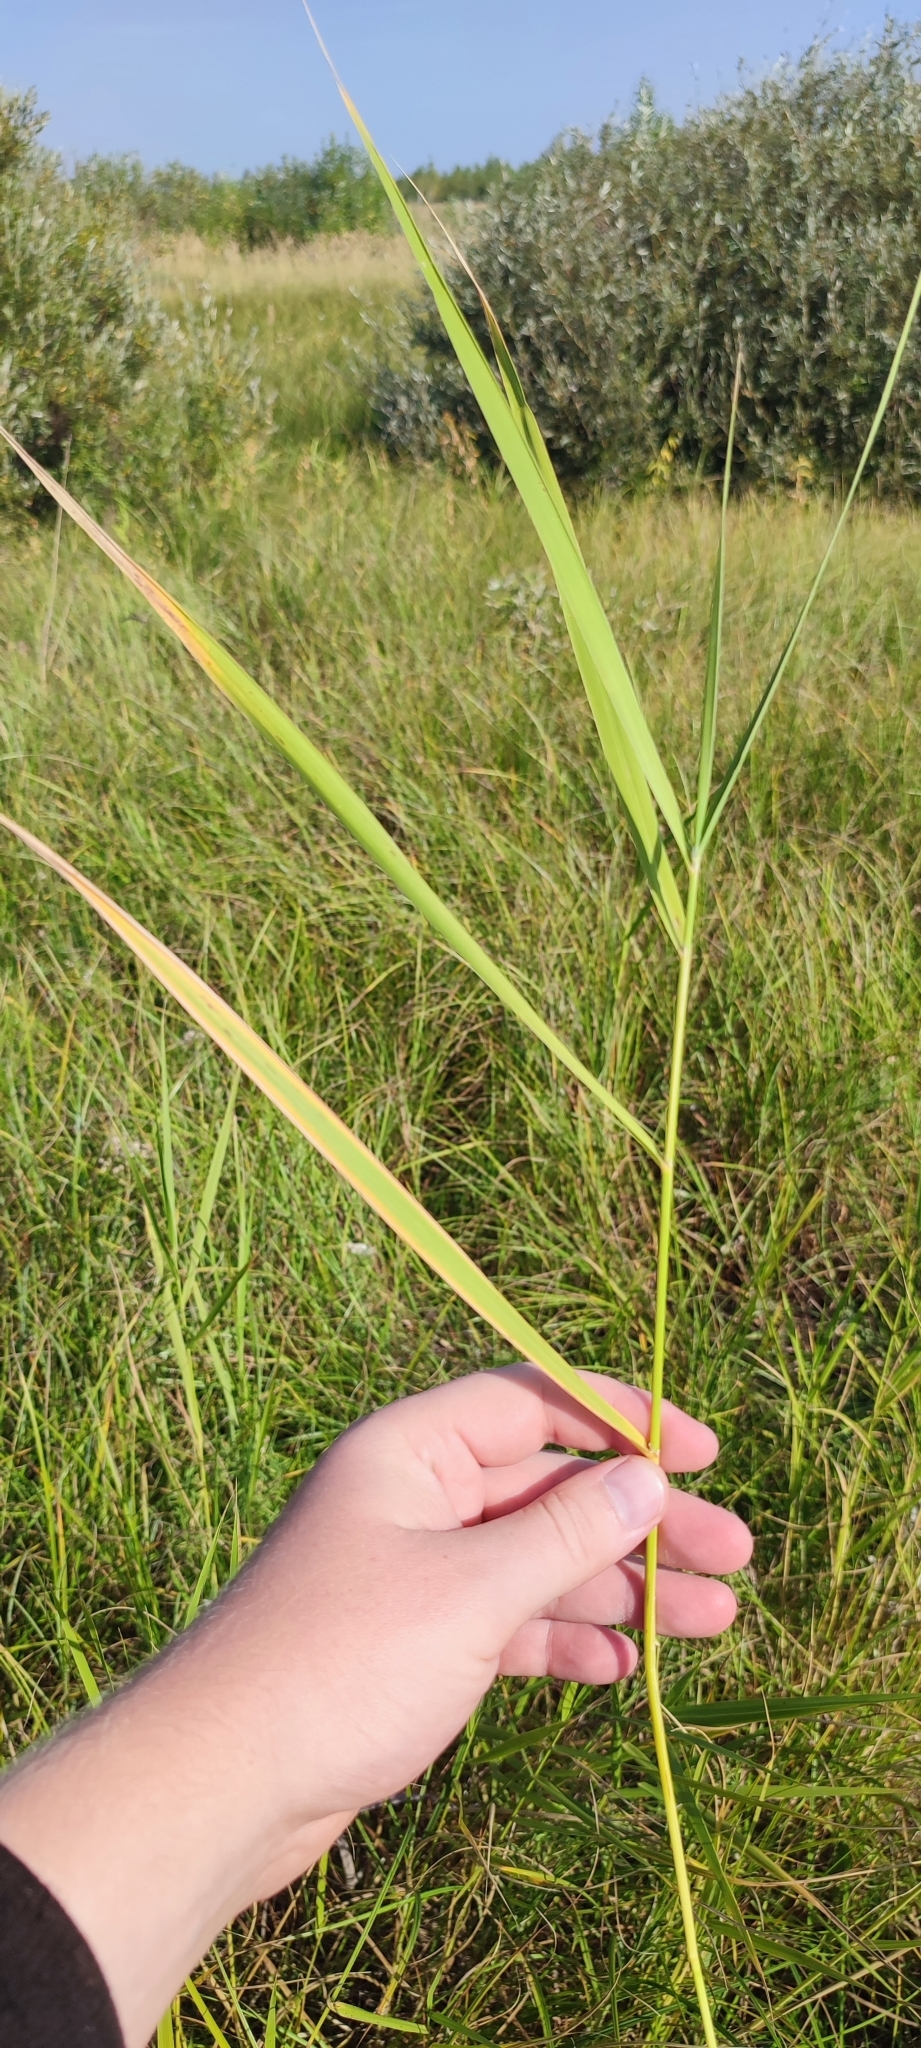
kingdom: Plantae
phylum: Tracheophyta
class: Liliopsida
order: Poales
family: Poaceae
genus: Phragmites
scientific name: Phragmites australis
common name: Common reed
